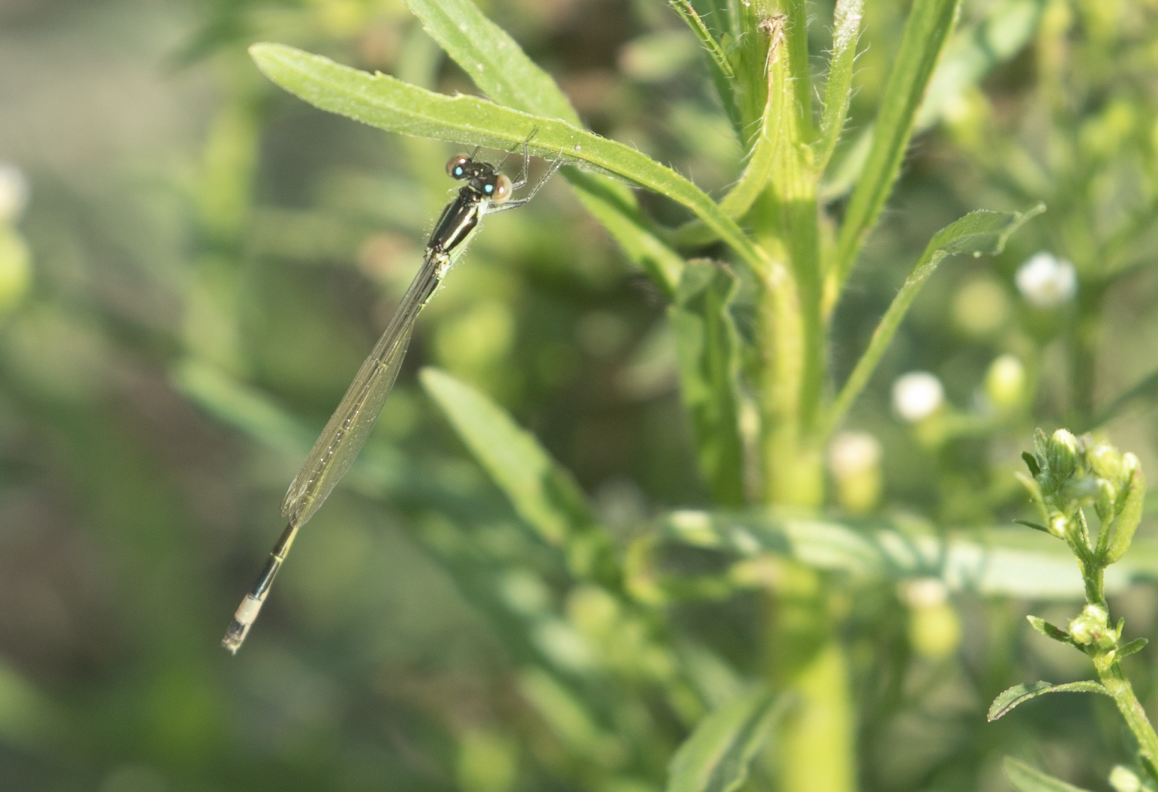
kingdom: Animalia
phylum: Arthropoda
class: Insecta
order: Odonata
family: Coenagrionidae
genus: Ischnura
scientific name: Ischnura elegans
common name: Blue-tailed damselfly
